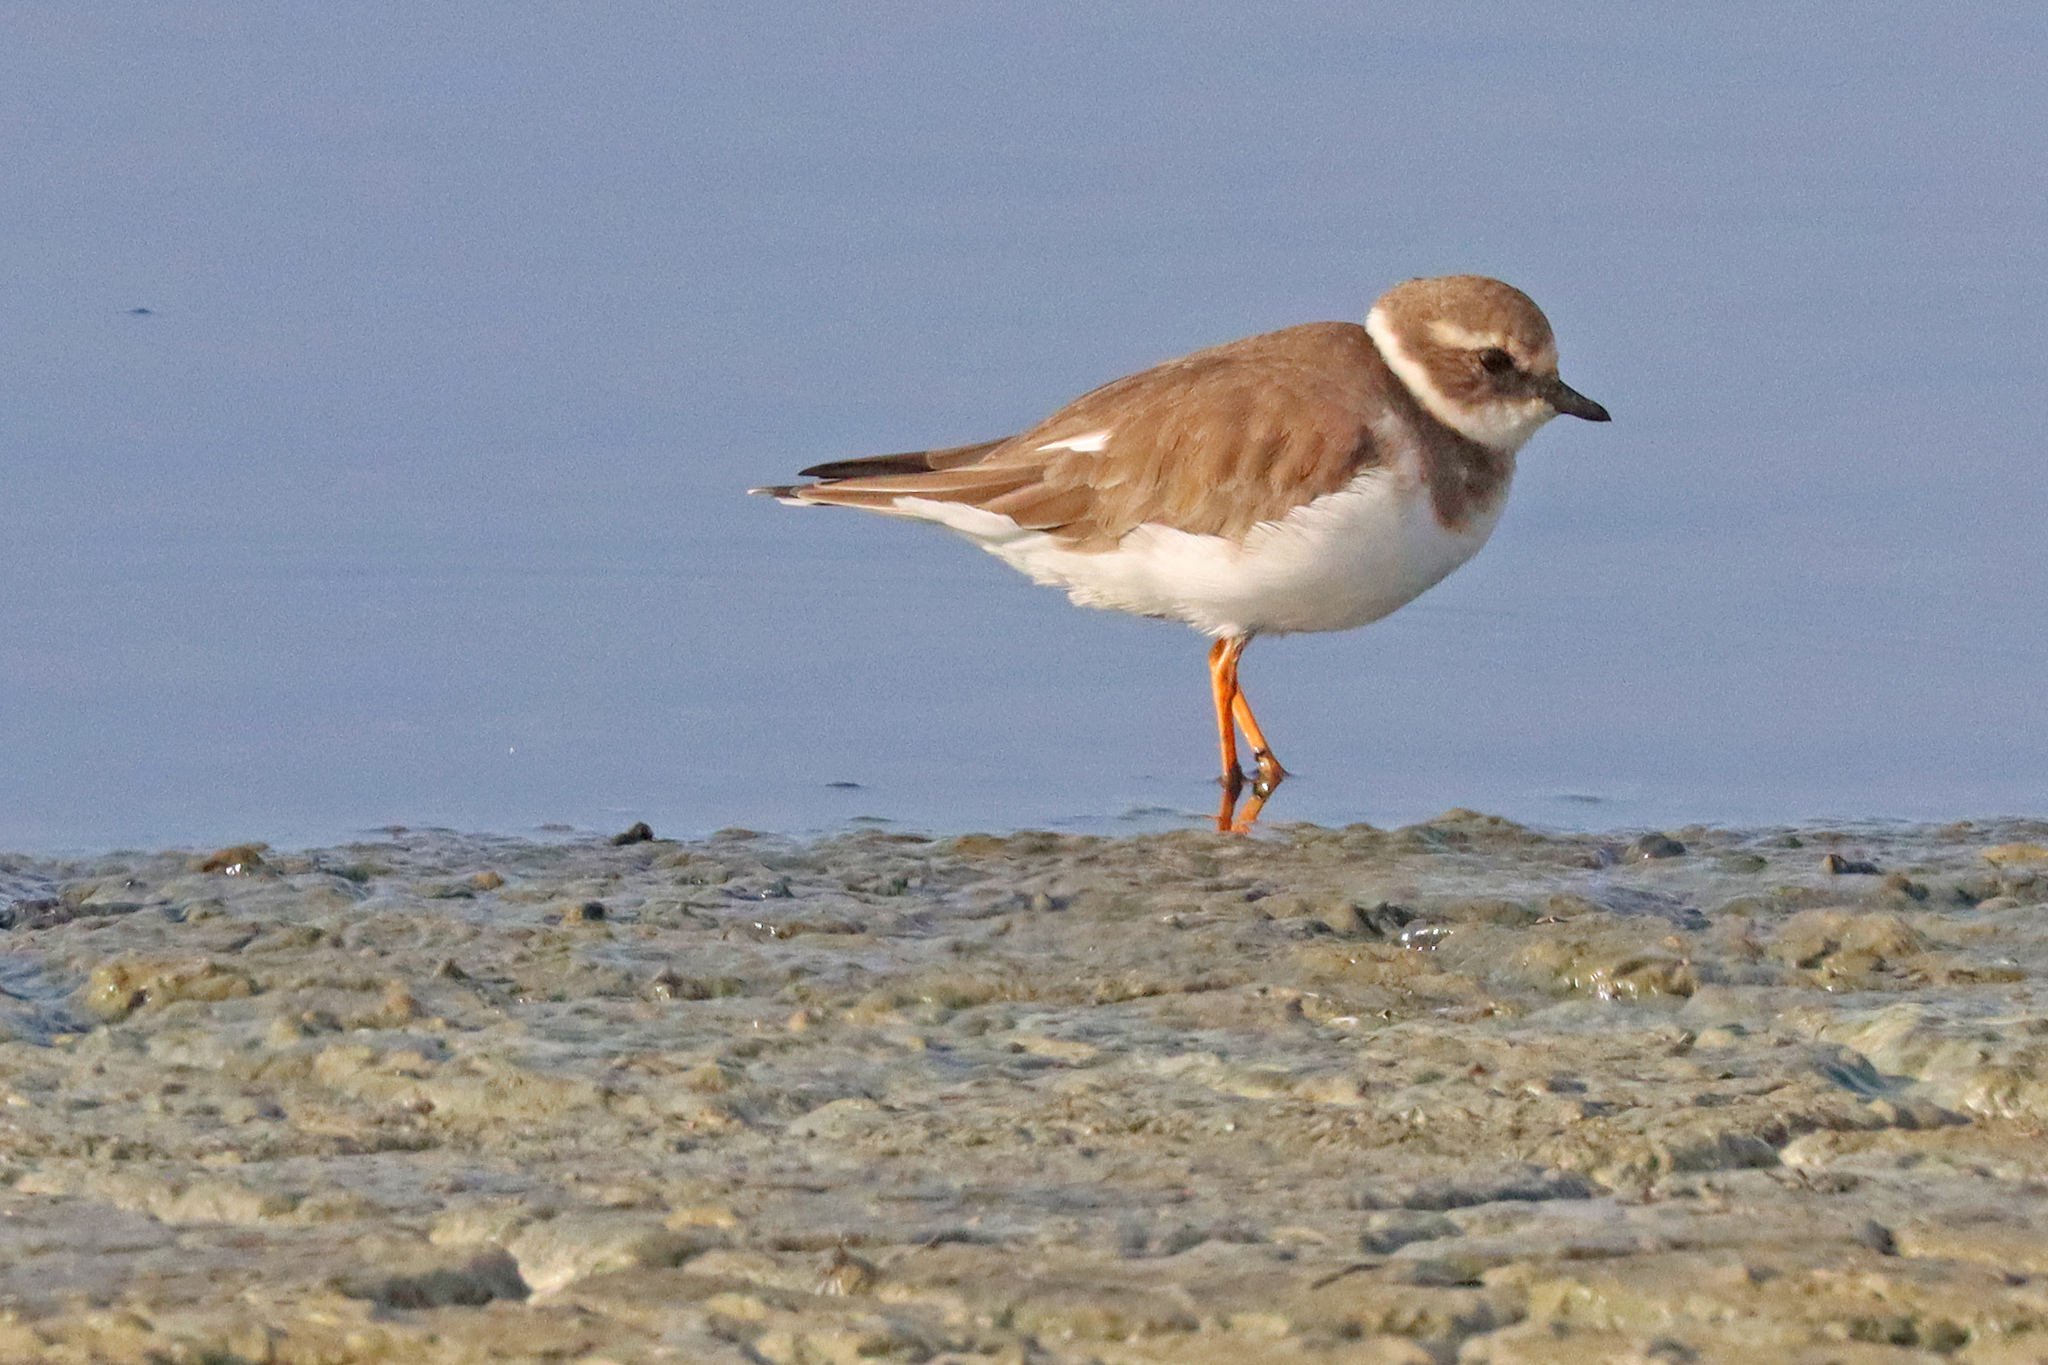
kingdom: Animalia
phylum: Chordata
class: Aves
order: Charadriiformes
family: Charadriidae
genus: Charadrius
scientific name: Charadrius hiaticula
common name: Common ringed plover
